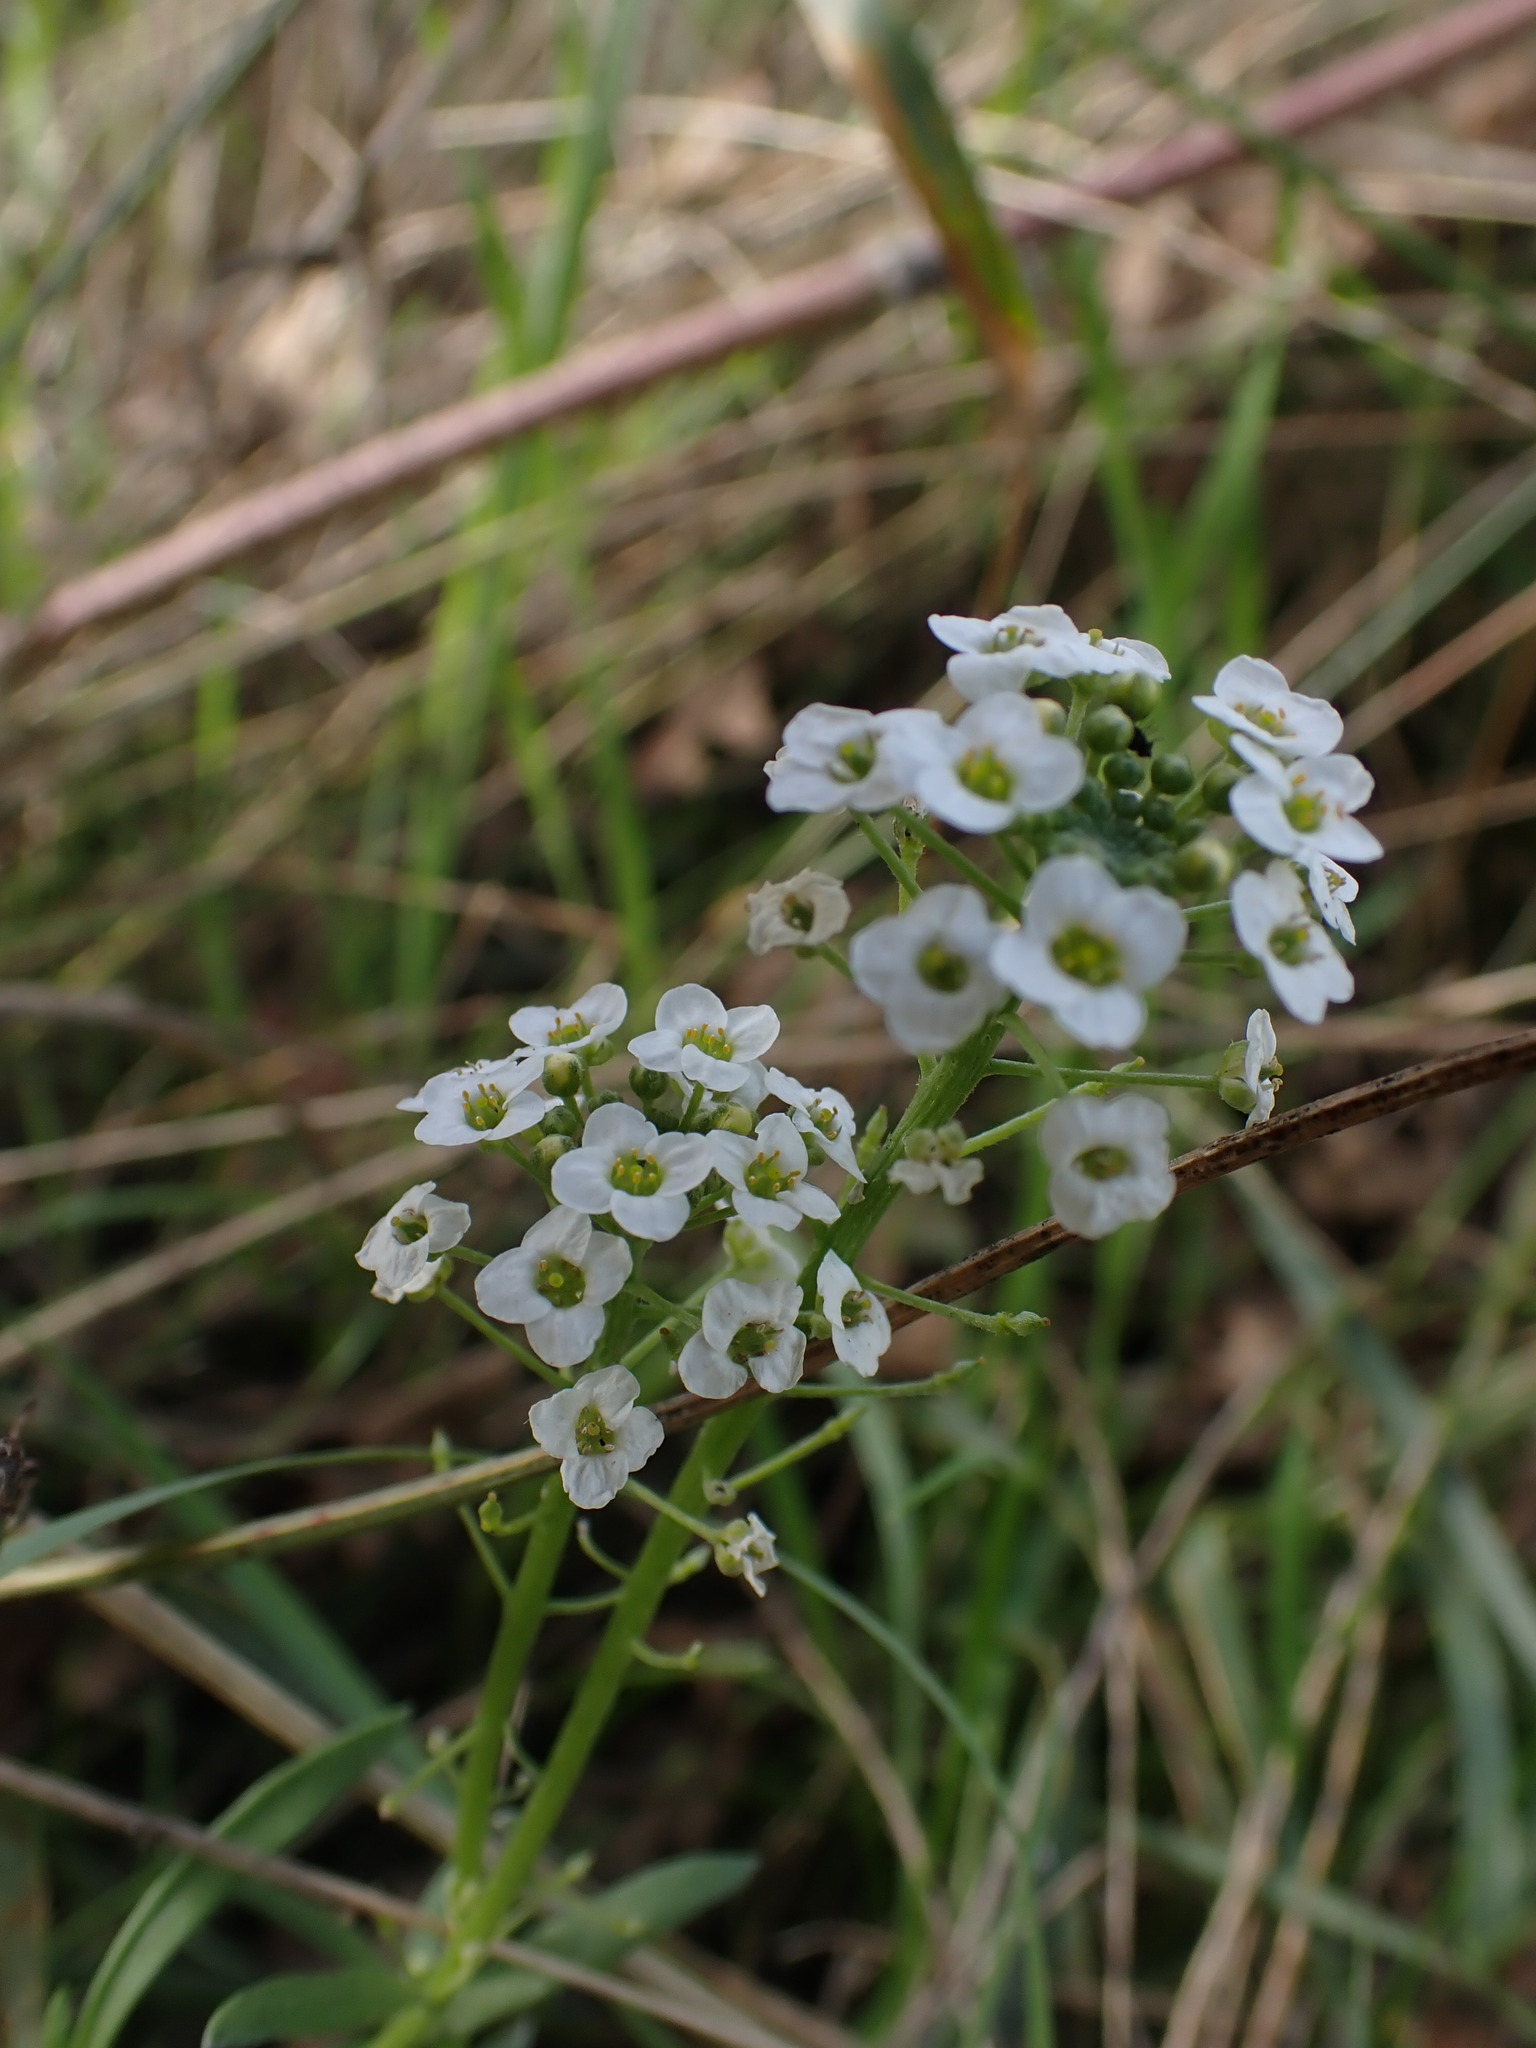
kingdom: Plantae
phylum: Tracheophyta
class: Magnoliopsida
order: Brassicales
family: Brassicaceae
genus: Lobularia
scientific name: Lobularia maritima
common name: Sweet alison
